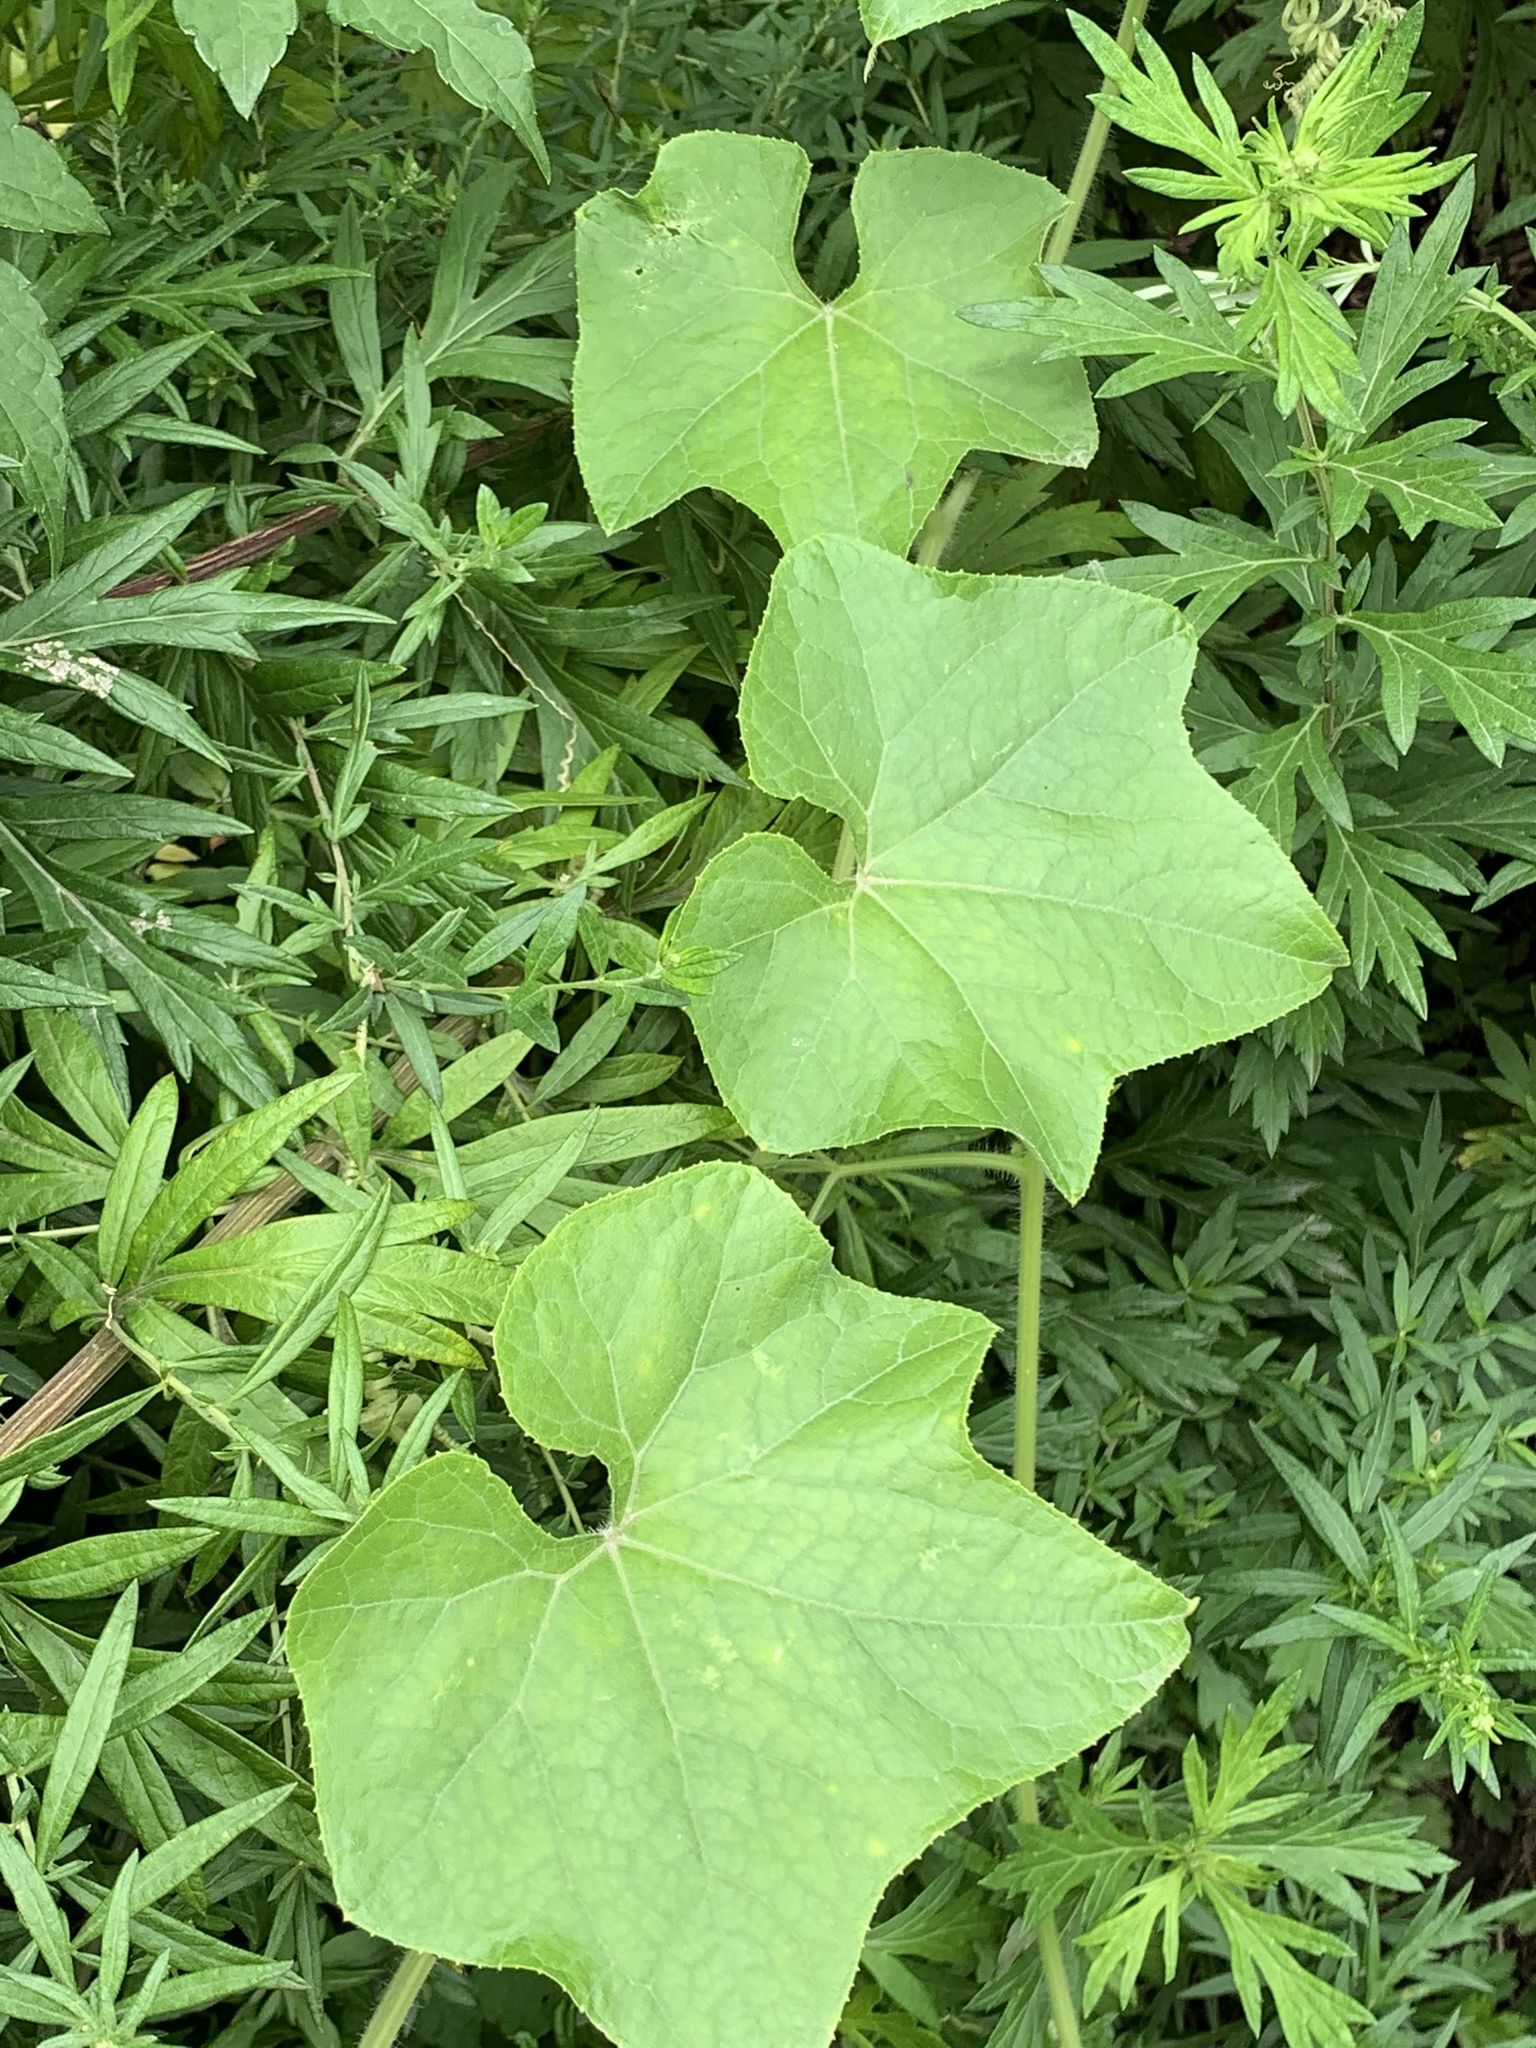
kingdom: Plantae
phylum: Tracheophyta
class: Magnoliopsida
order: Cucurbitales
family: Cucurbitaceae
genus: Sicyos
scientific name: Sicyos angulatus
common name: Angled burr cucumber
